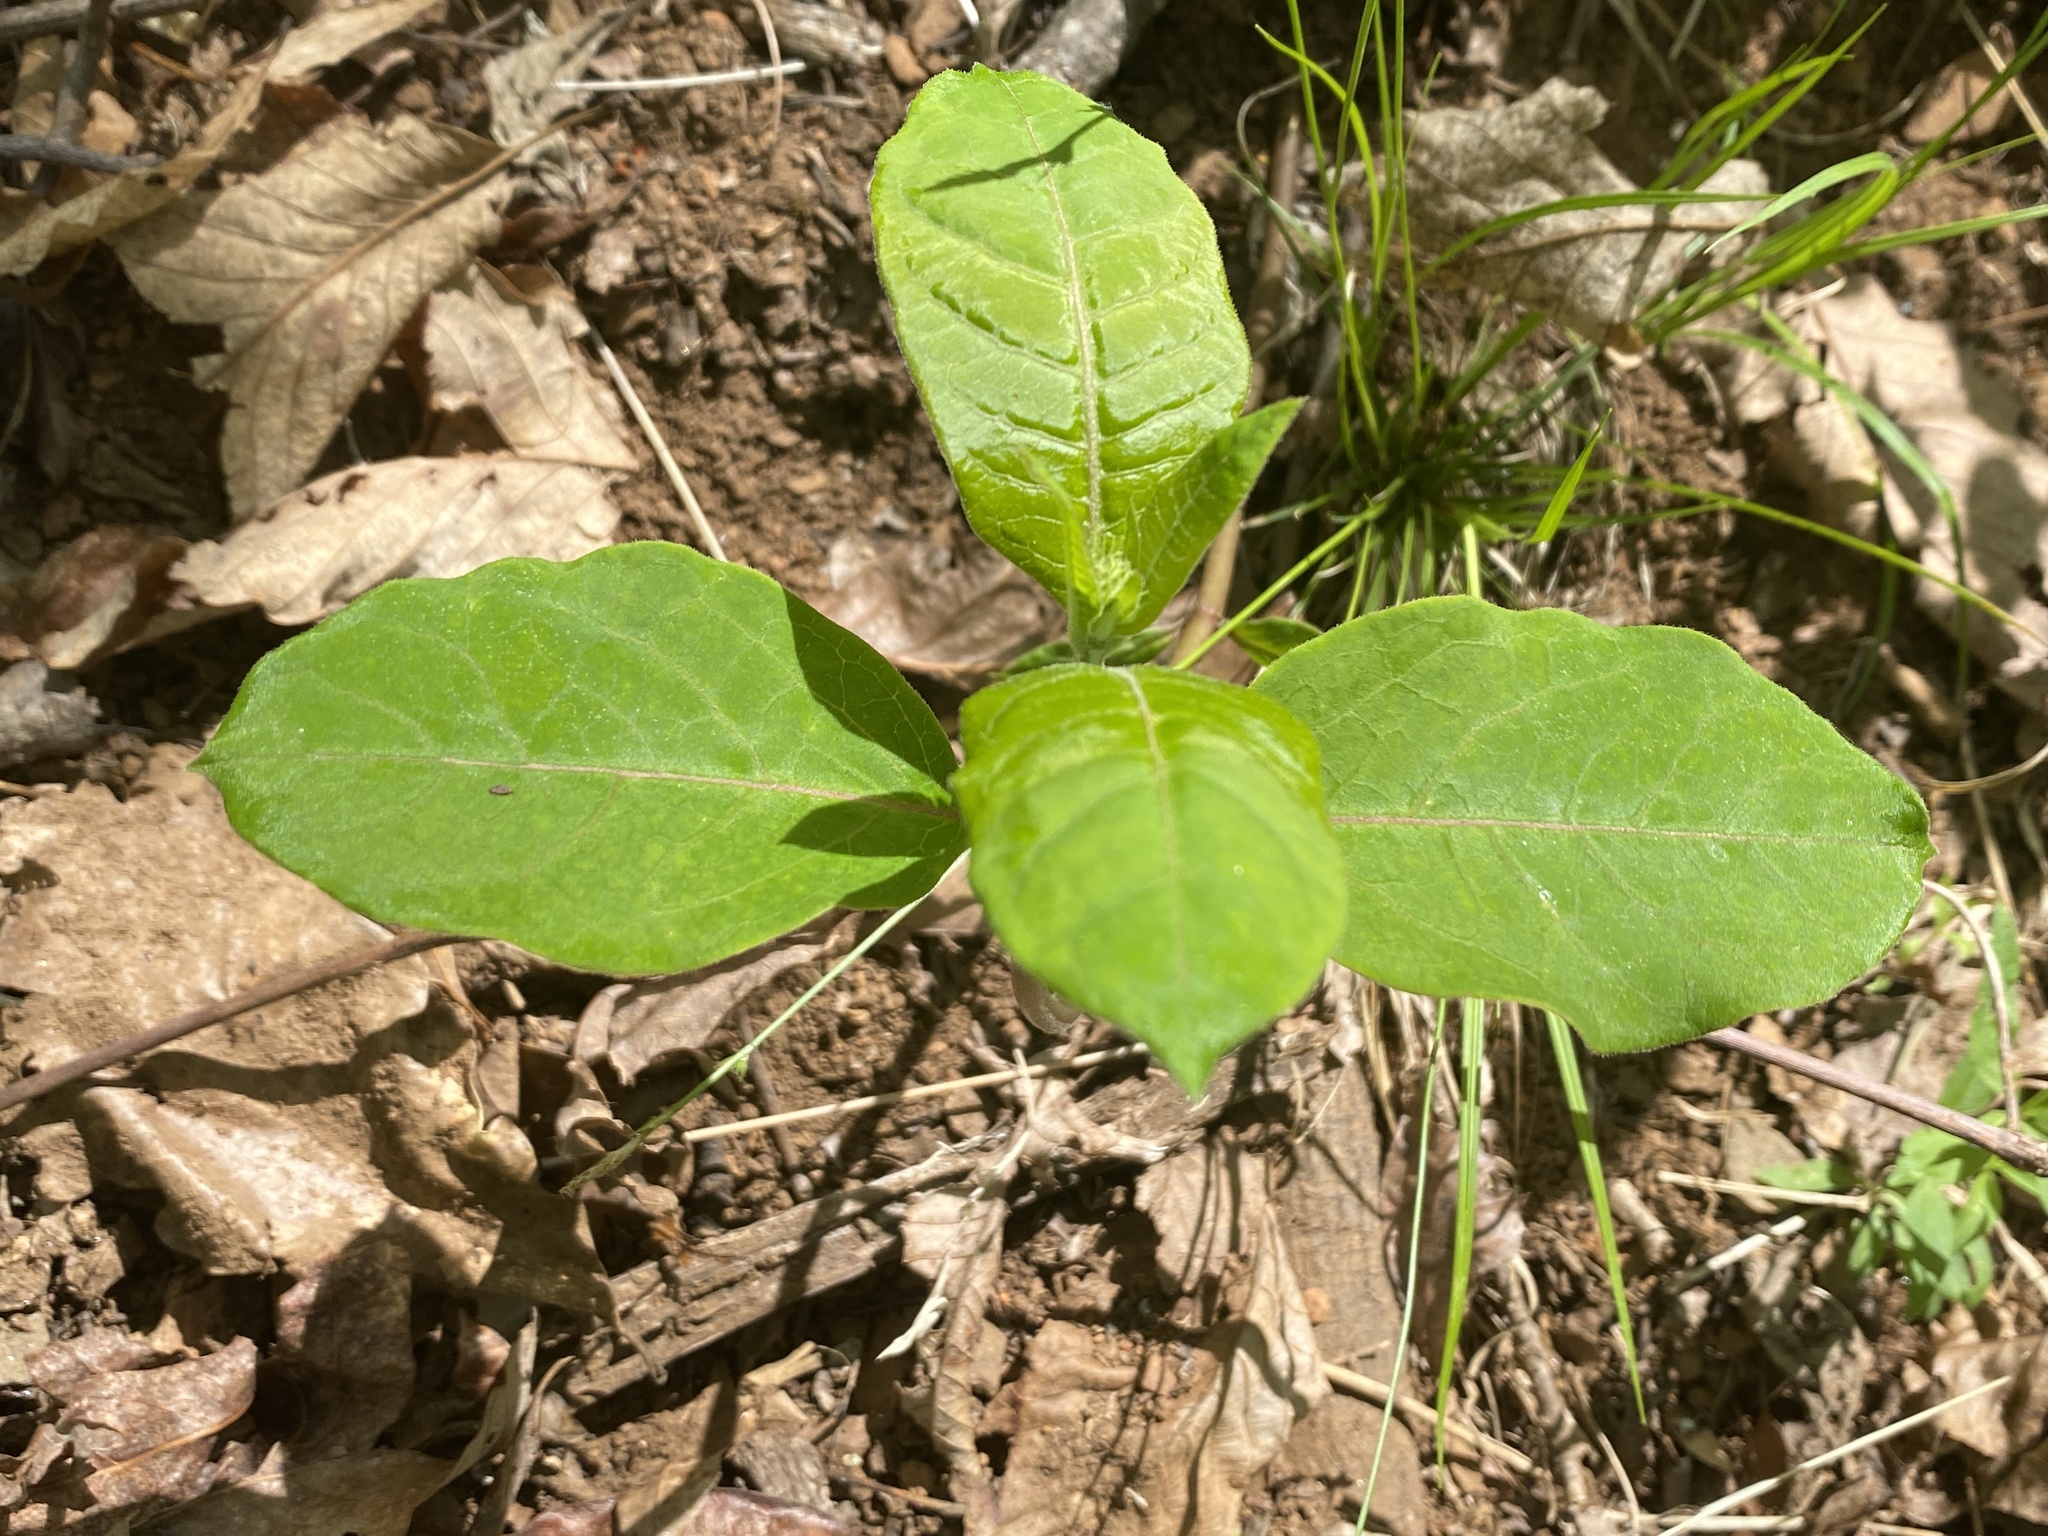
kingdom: Plantae
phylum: Tracheophyta
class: Magnoliopsida
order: Gentianales
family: Apocynaceae
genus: Asclepias
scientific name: Asclepias variegata
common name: Variegated milkweed
